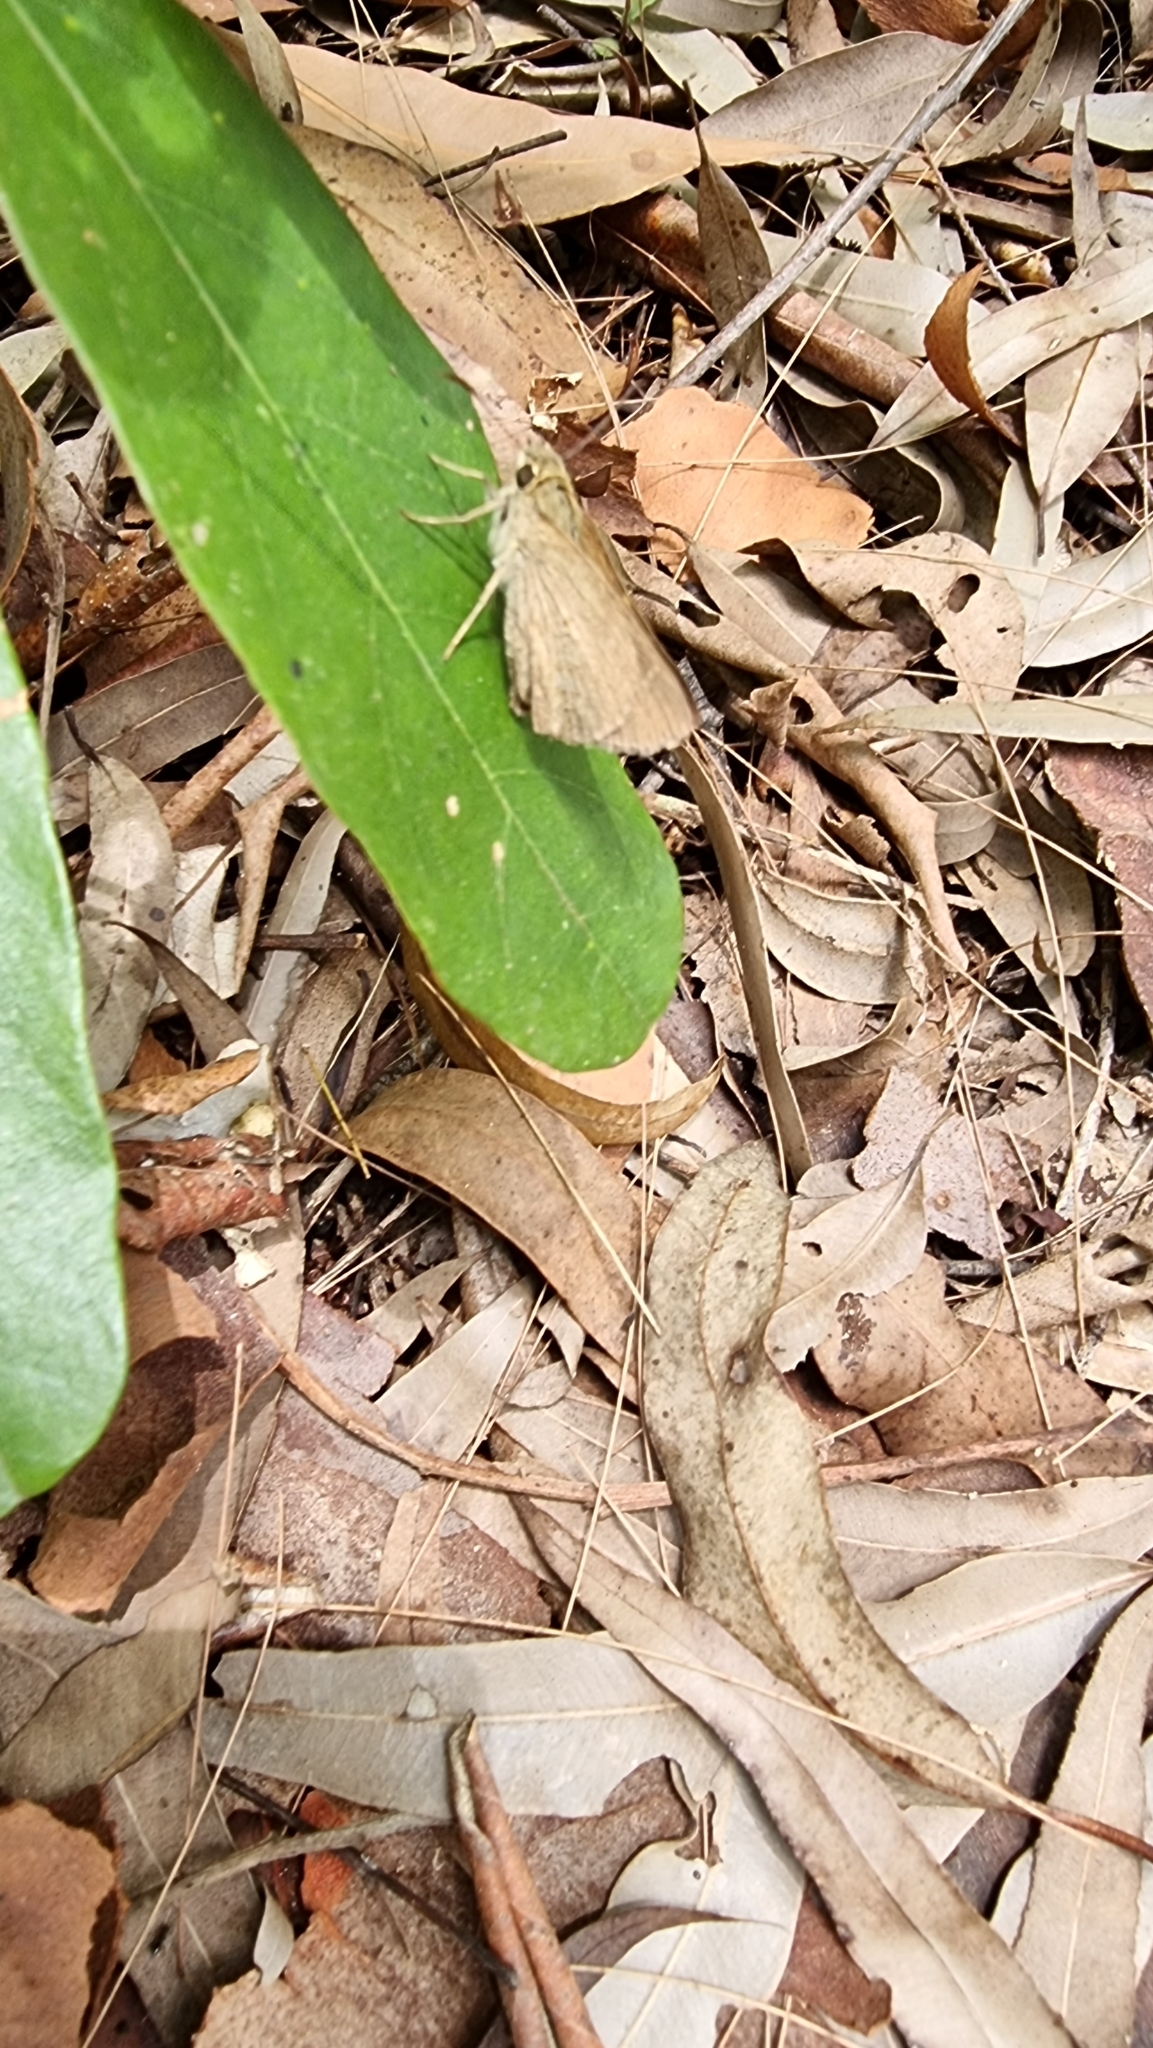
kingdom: Animalia
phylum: Arthropoda
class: Insecta
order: Lepidoptera
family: Hesperiidae
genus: Toxidia
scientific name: Toxidia
